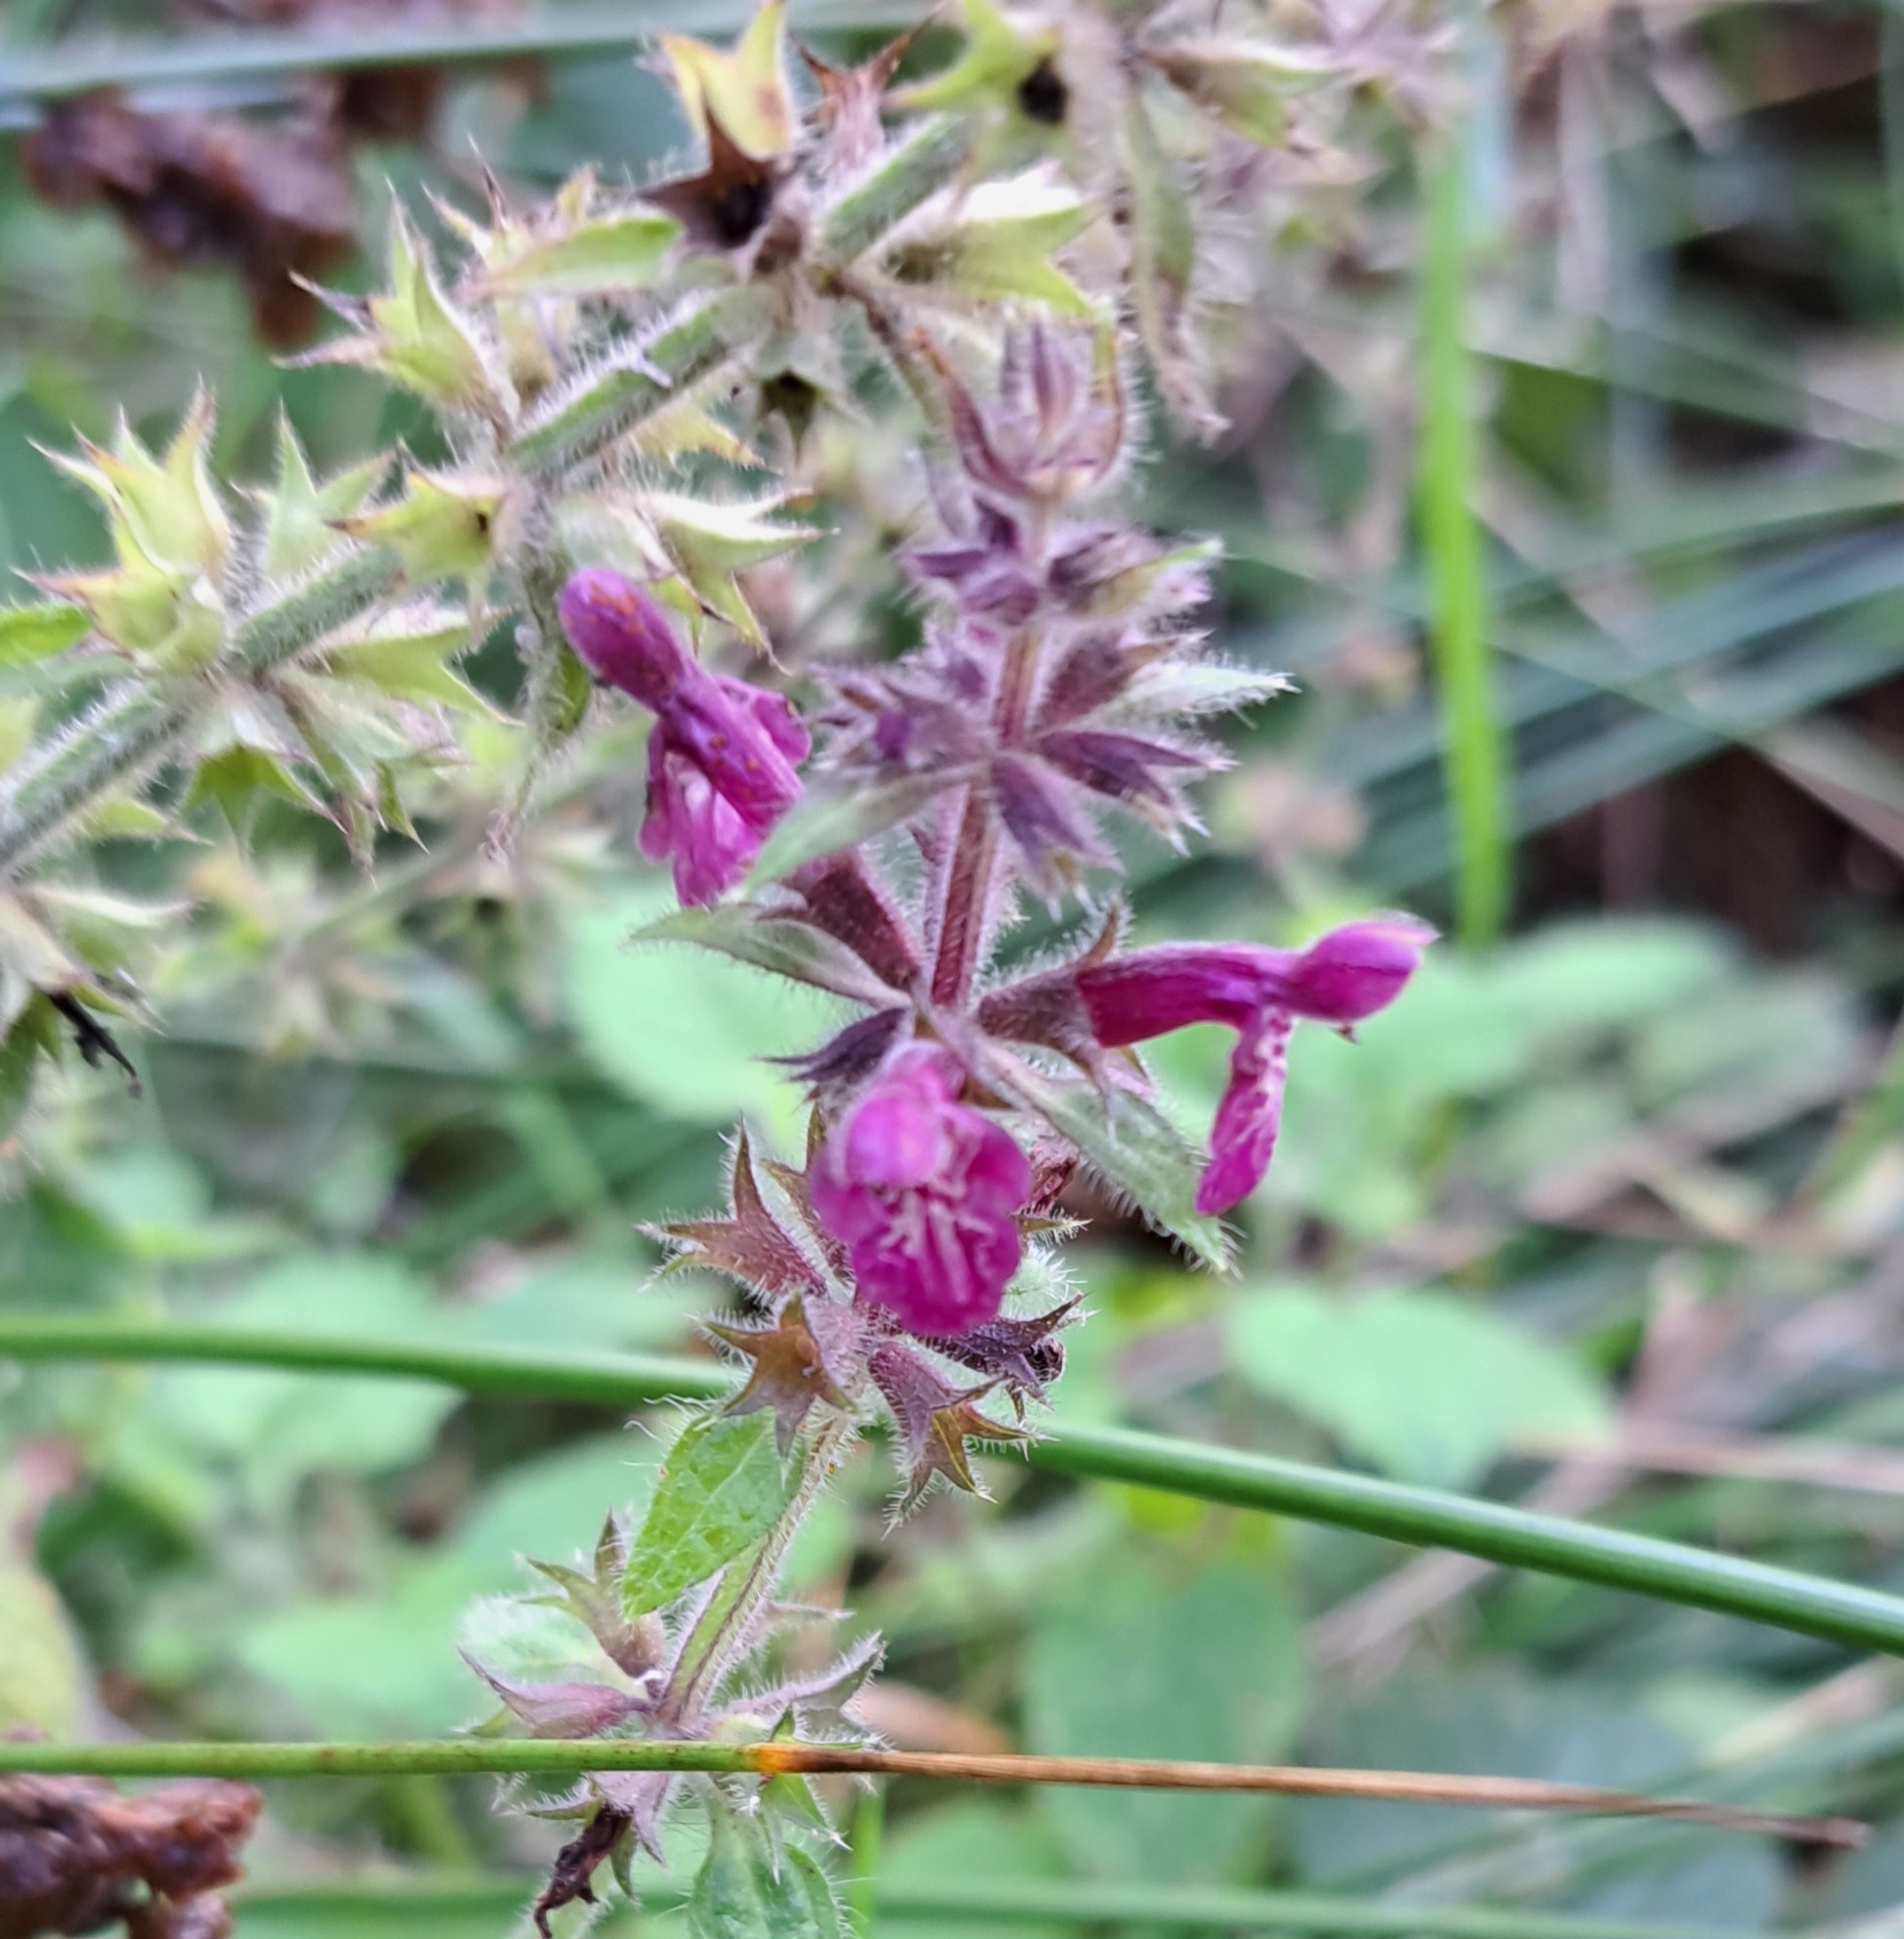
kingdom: Plantae
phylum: Tracheophyta
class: Magnoliopsida
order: Lamiales
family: Lamiaceae
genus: Stachys
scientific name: Stachys sylvatica
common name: Hedge woundwort
